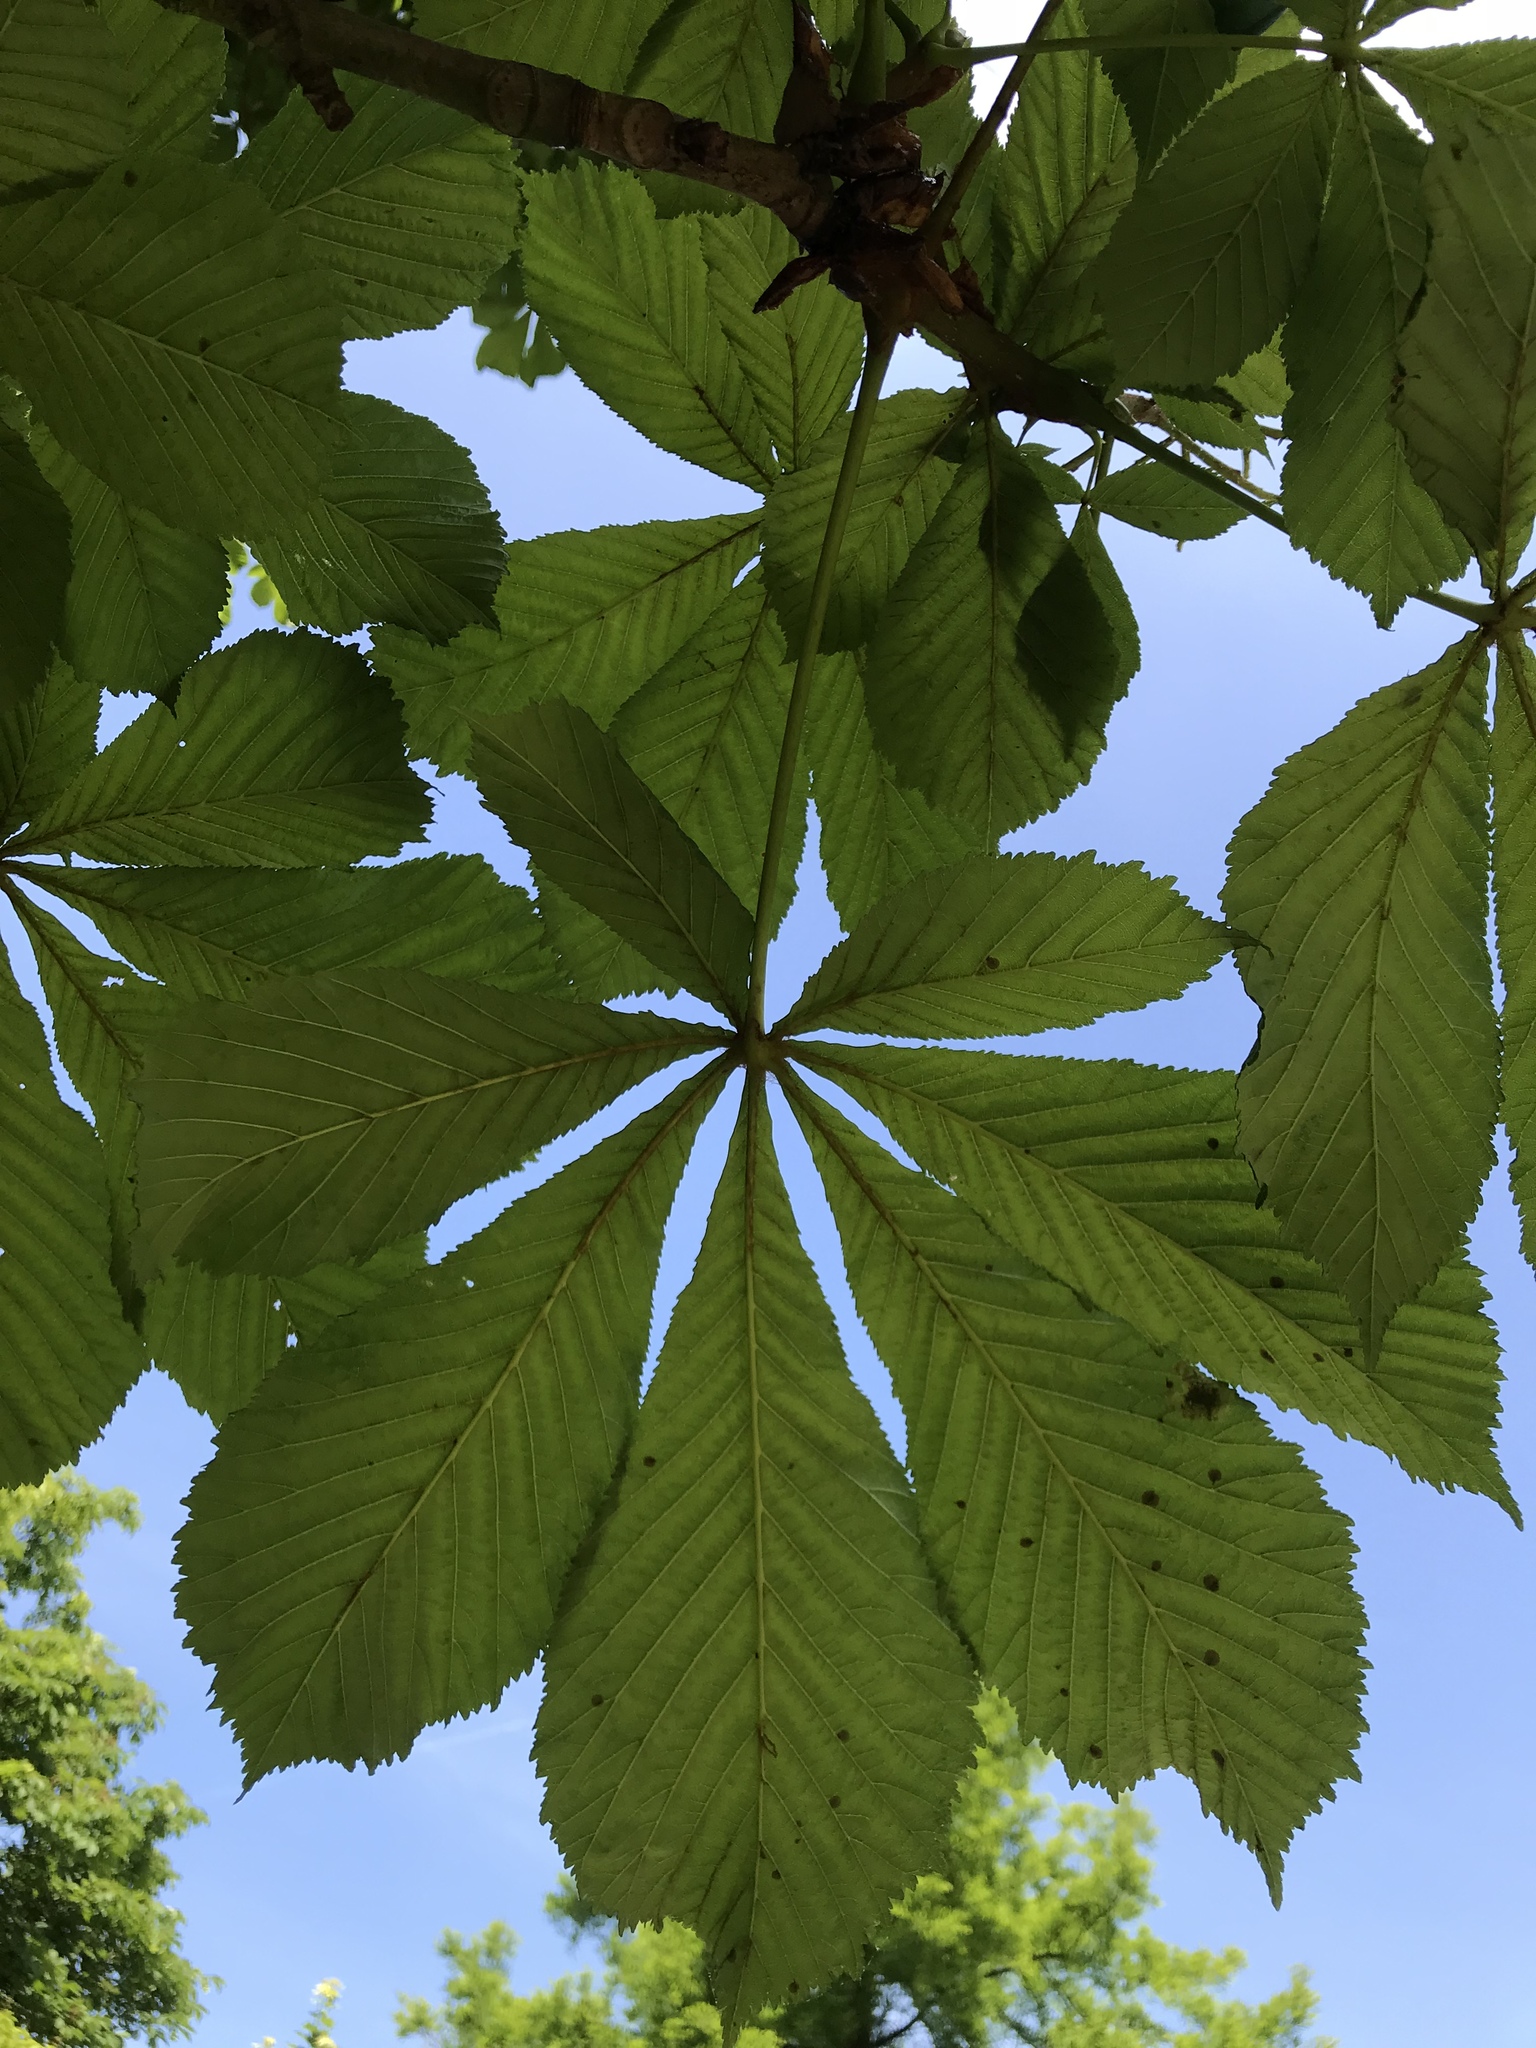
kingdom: Plantae
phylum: Tracheophyta
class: Magnoliopsida
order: Sapindales
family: Sapindaceae
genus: Aesculus
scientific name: Aesculus hippocastanum
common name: Horse-chestnut
